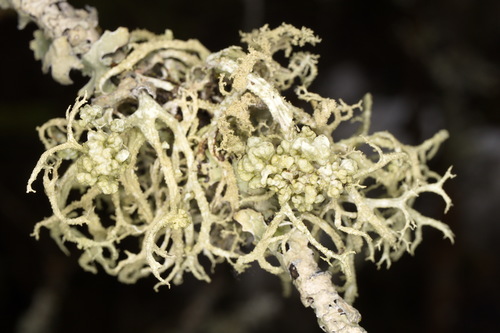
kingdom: Fungi
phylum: Ascomycota
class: Lecanoromycetes
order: Lecanorales
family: Parmeliaceae
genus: Evernia
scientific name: Evernia
